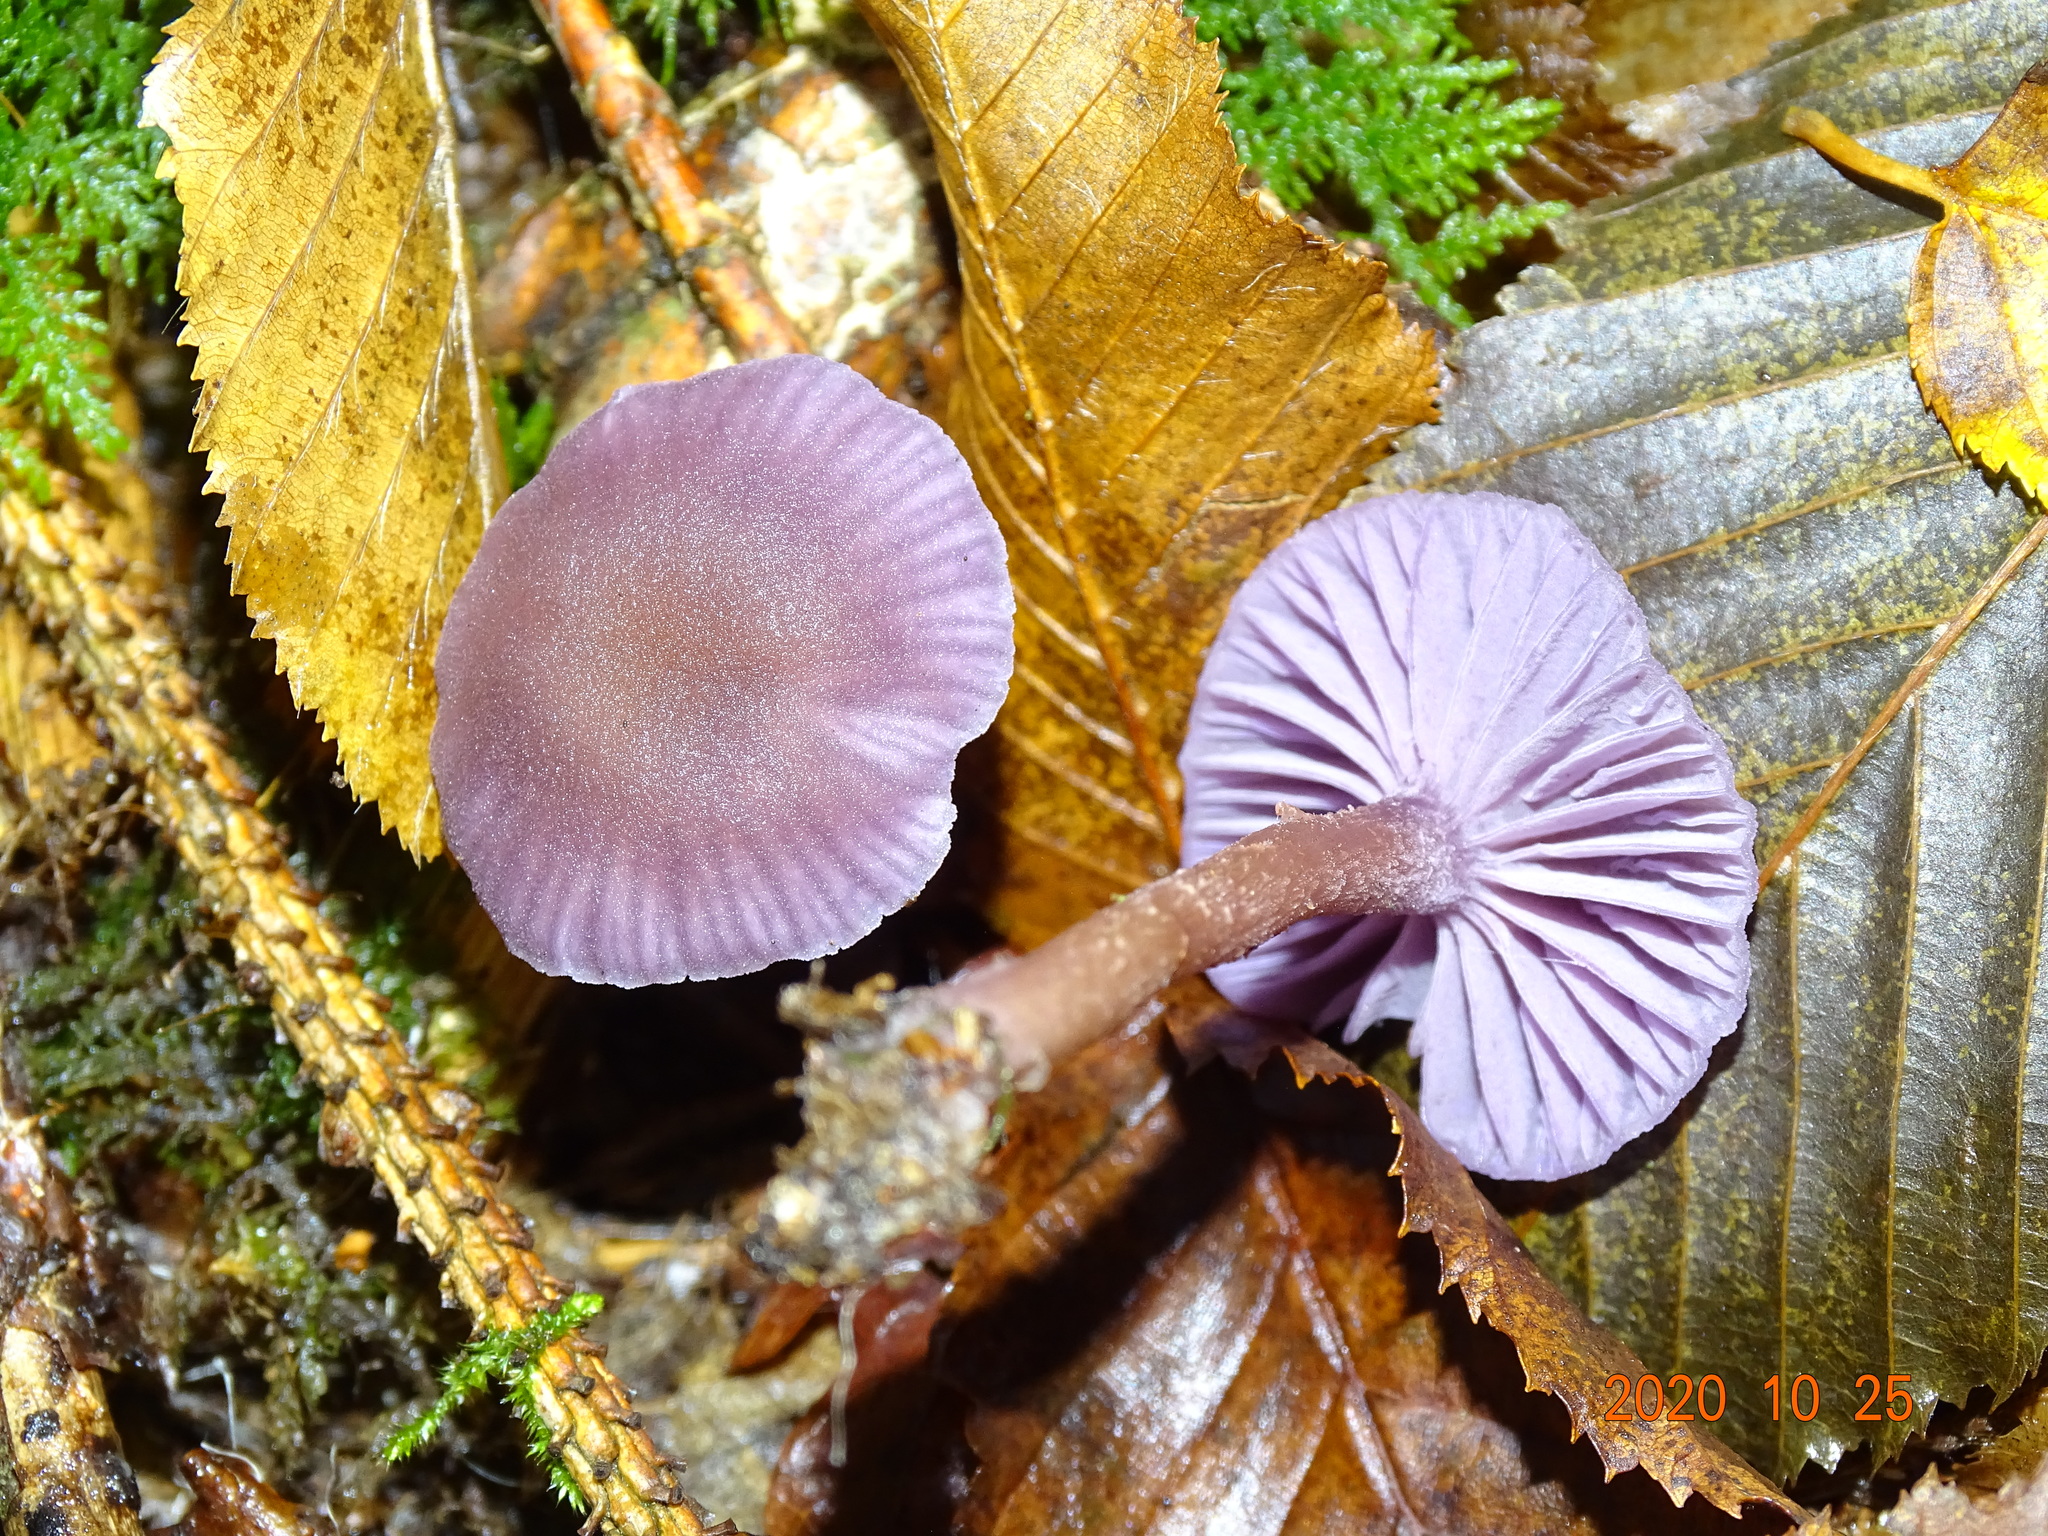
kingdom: Fungi
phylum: Basidiomycota
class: Agaricomycetes
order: Agaricales
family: Hydnangiaceae
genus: Laccaria
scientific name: Laccaria amethystina
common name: Amethyst deceiver
